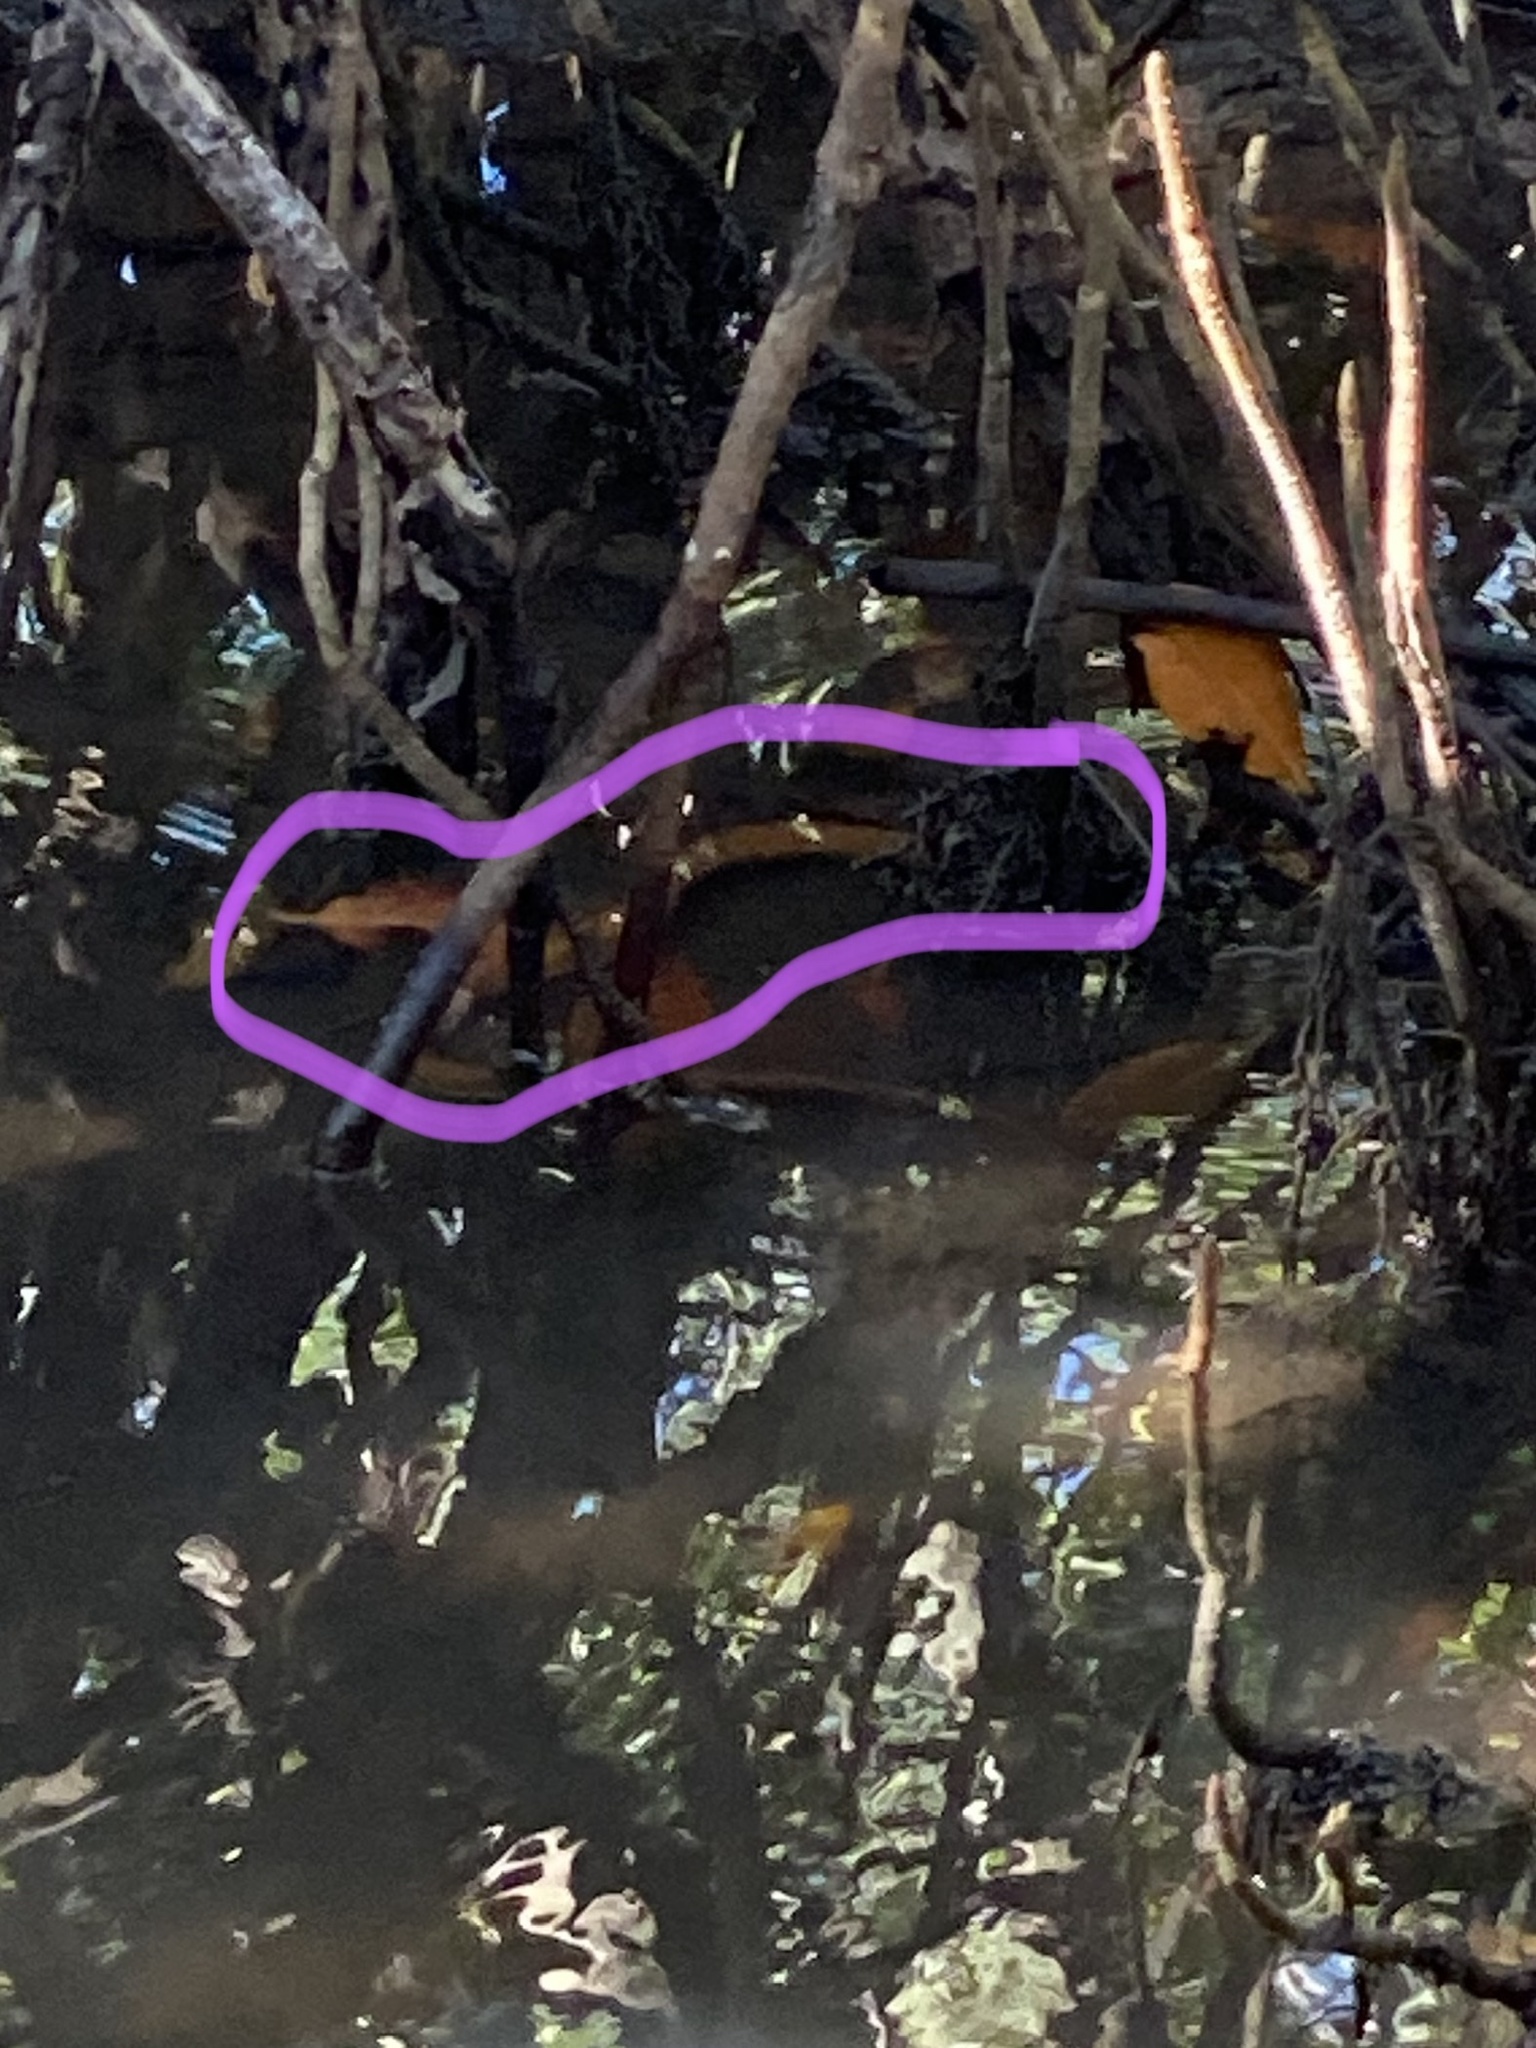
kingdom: Animalia
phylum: Chordata
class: Squamata
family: Colubridae
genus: Nerodia
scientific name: Nerodia clarkii
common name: Atlantic saltmarsh snake
